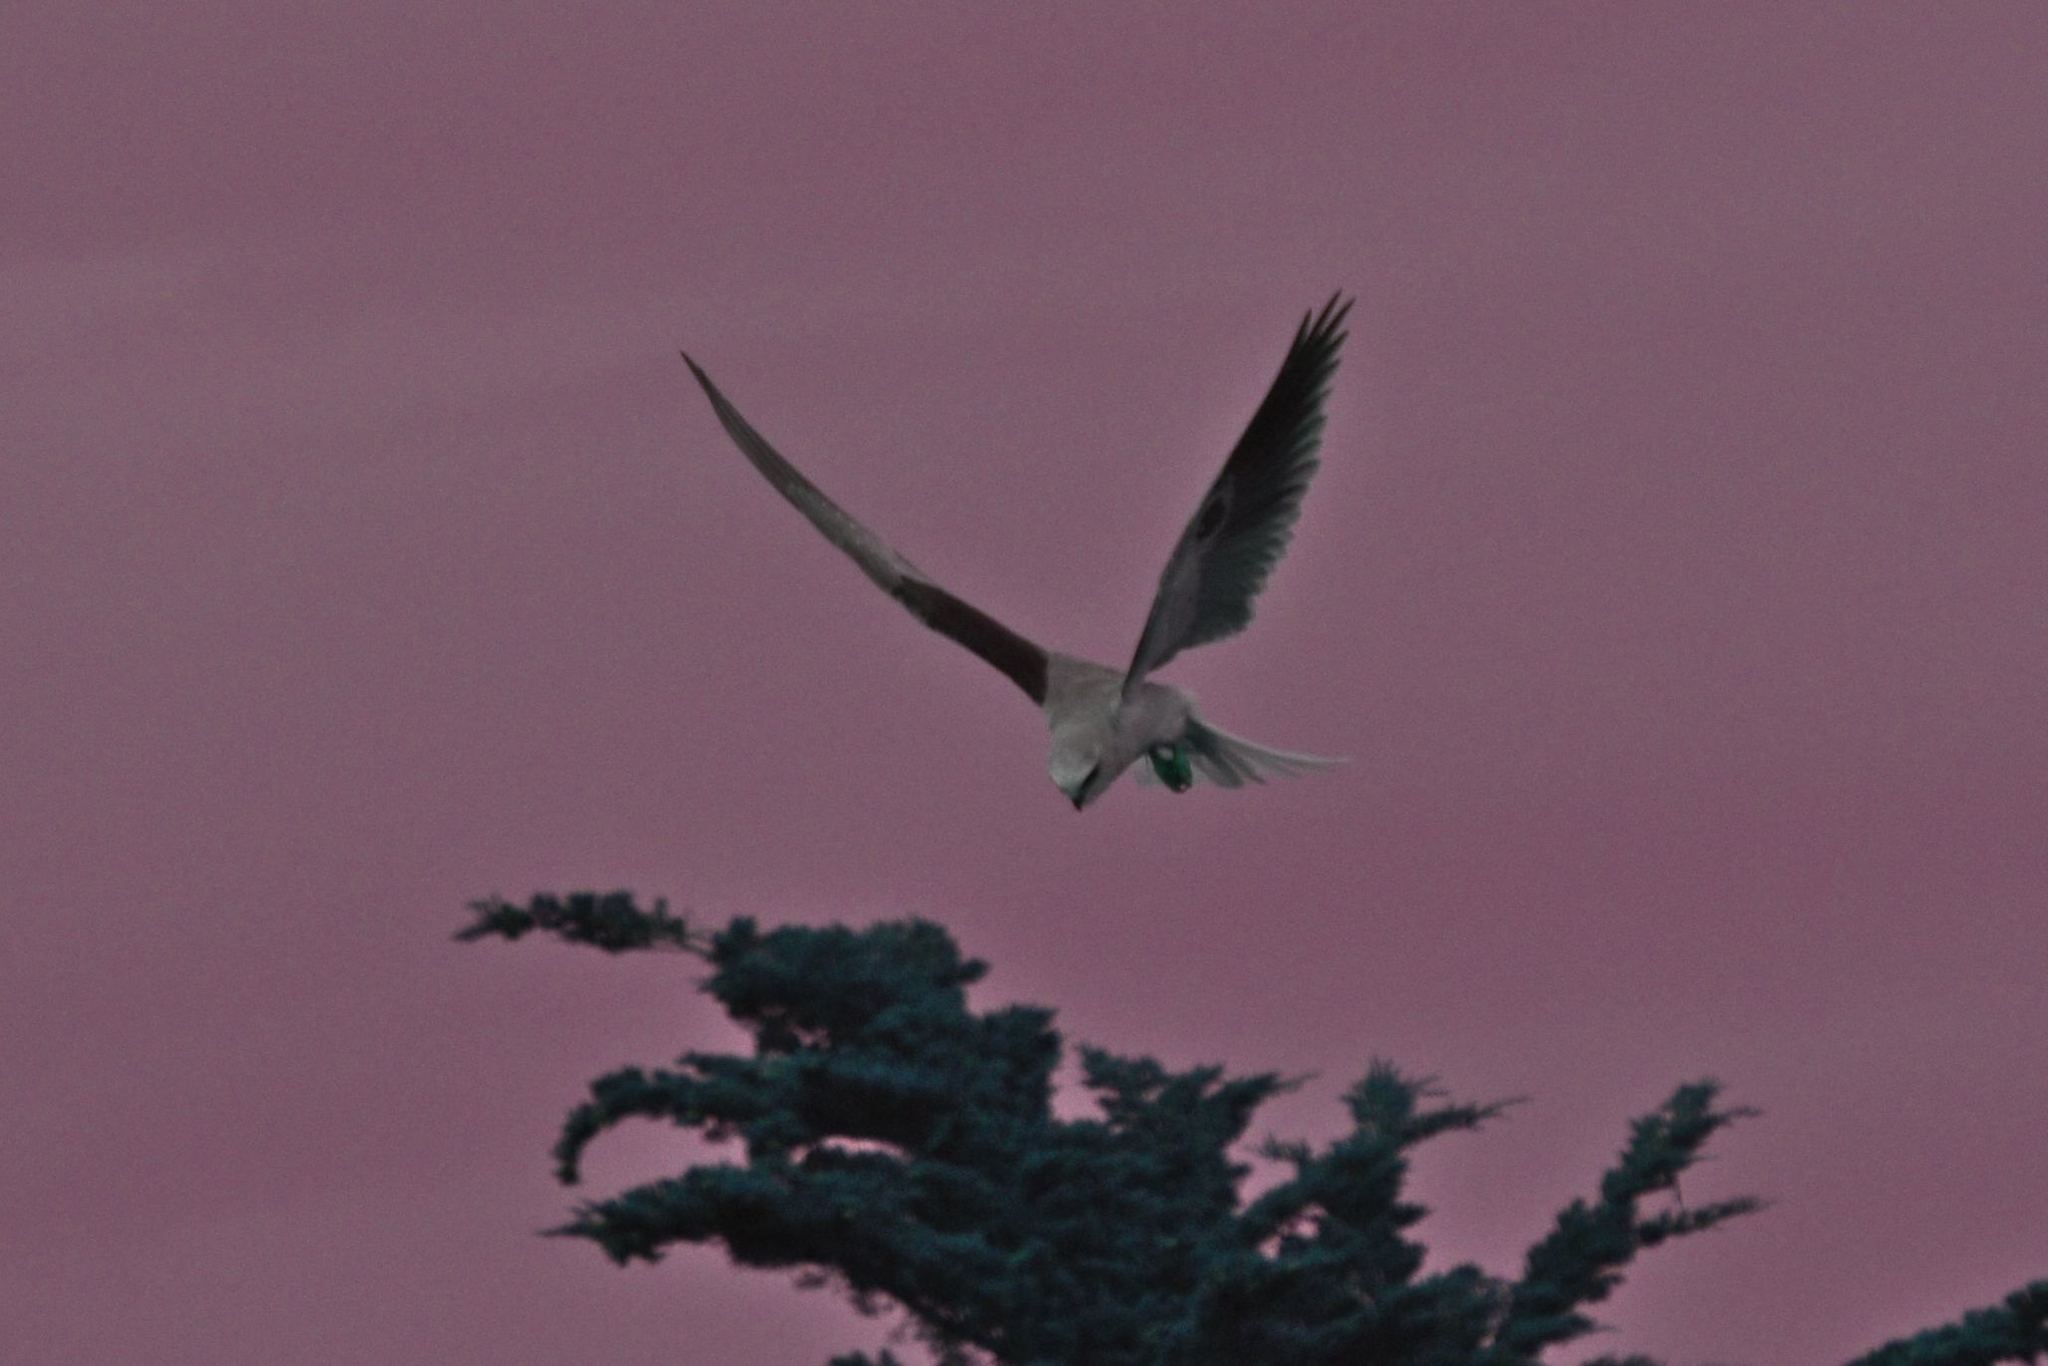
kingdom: Animalia
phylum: Chordata
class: Aves
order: Accipitriformes
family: Accipitridae
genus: Elanus
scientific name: Elanus leucurus
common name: White-tailed kite
